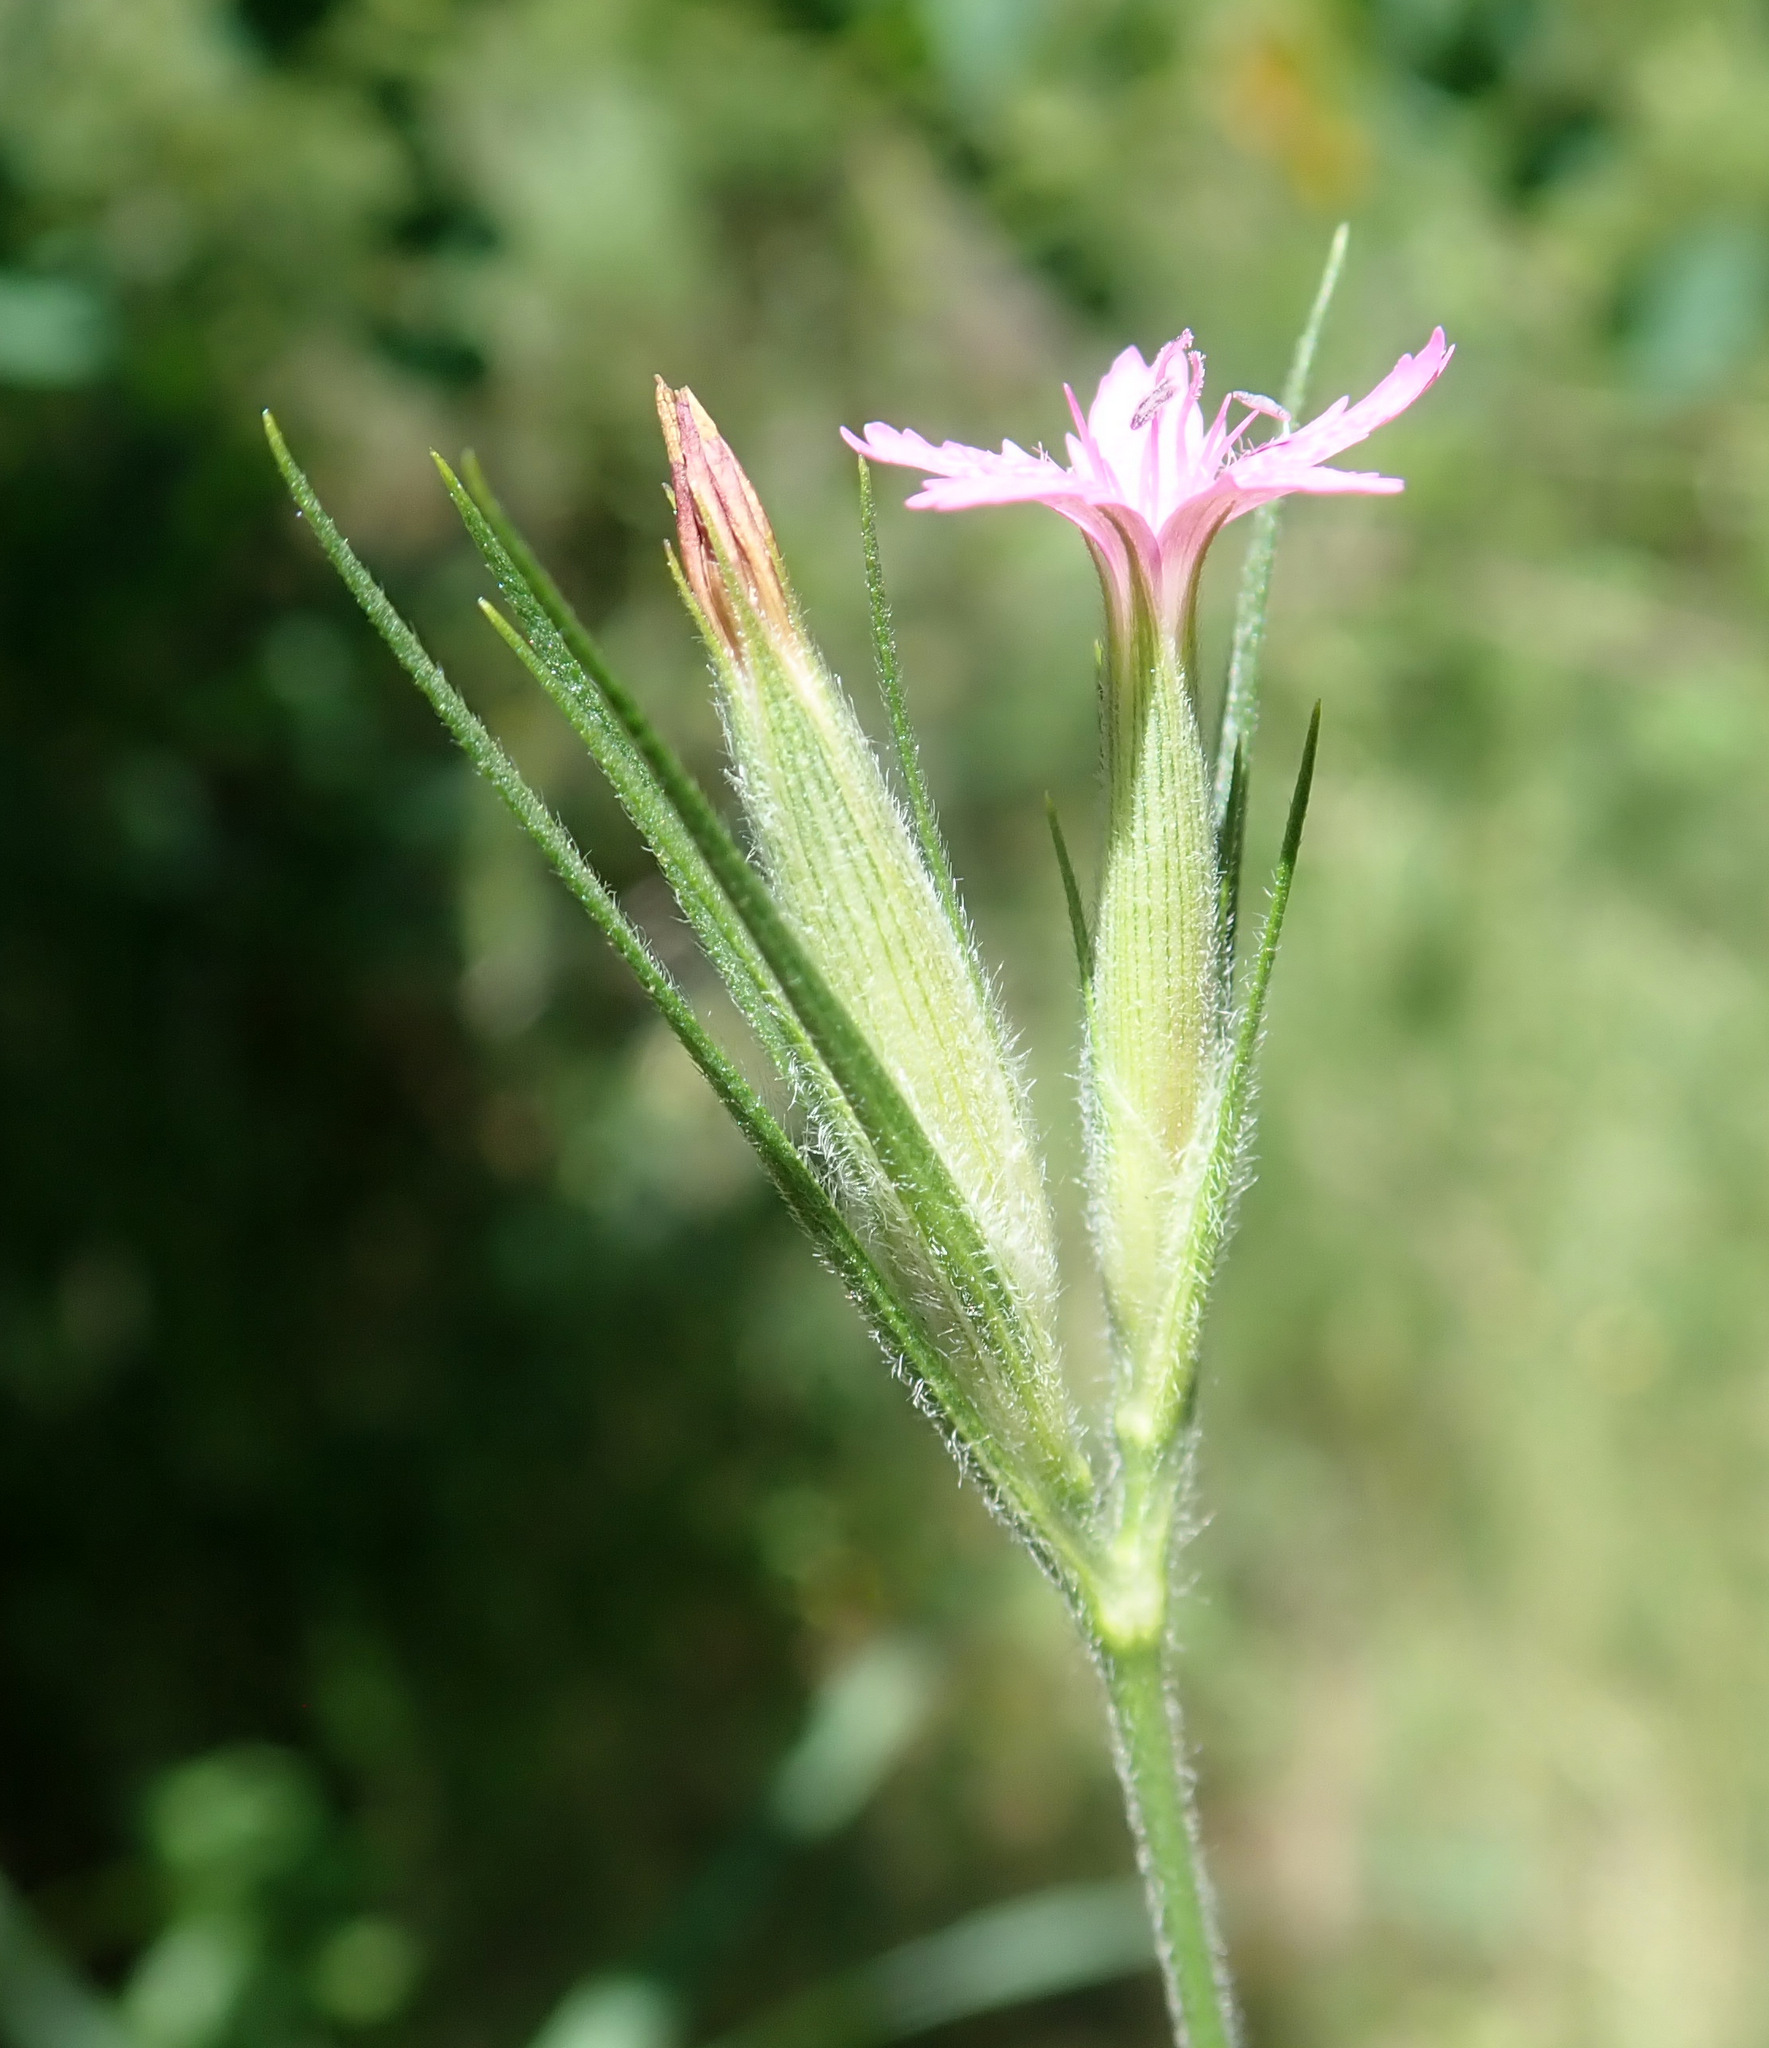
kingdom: Plantae
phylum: Tracheophyta
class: Magnoliopsida
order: Caryophyllales
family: Caryophyllaceae
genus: Dianthus
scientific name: Dianthus armeria
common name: Deptford pink
